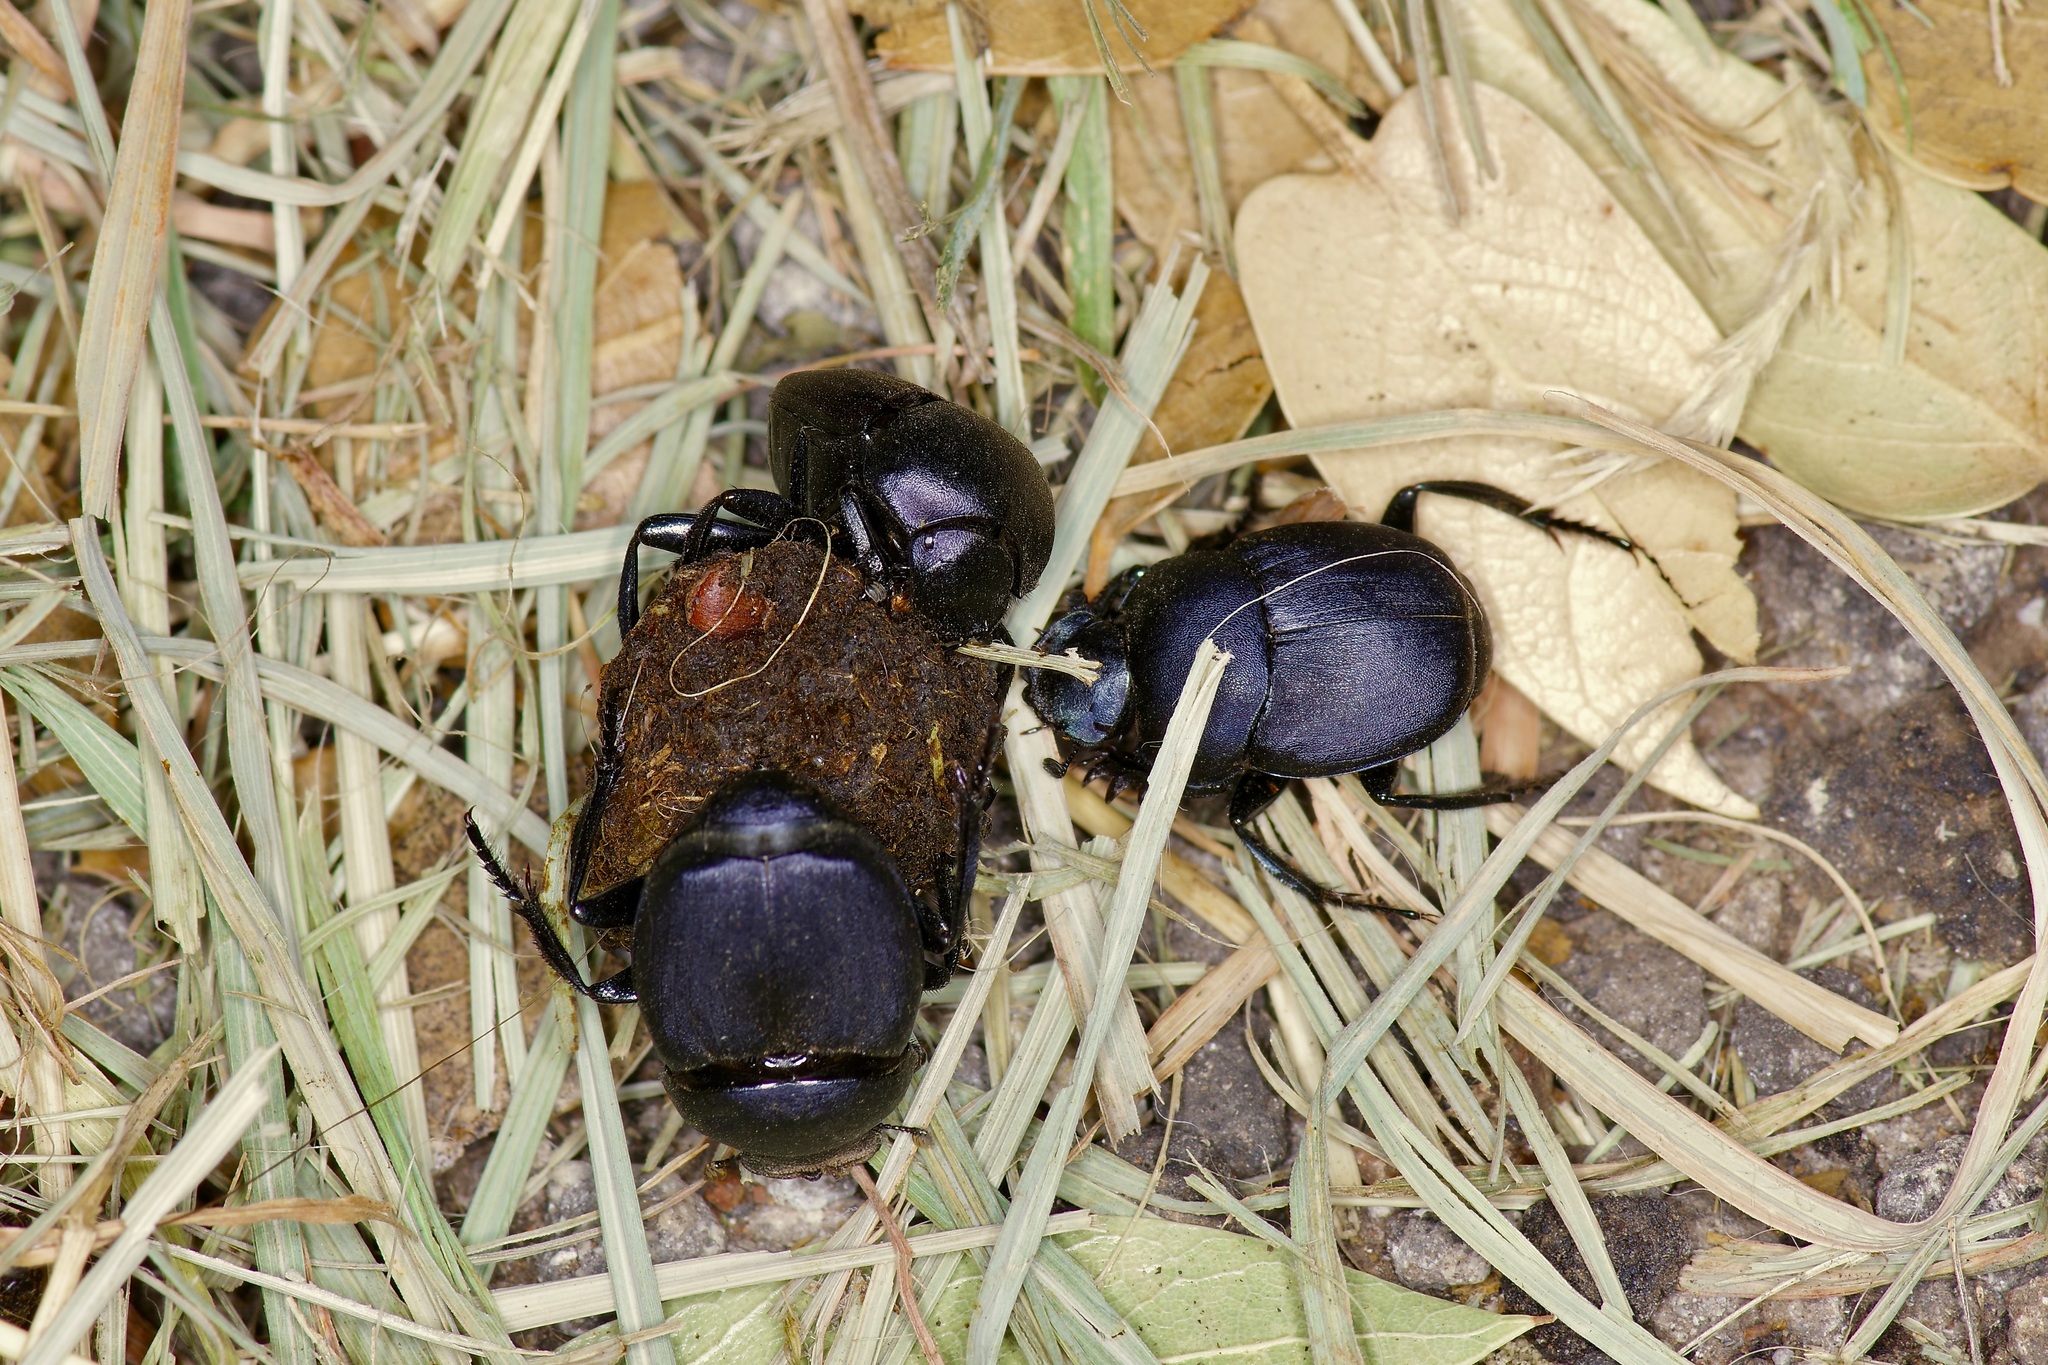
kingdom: Animalia
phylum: Arthropoda
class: Insecta
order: Coleoptera
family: Scarabaeidae
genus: Canthon
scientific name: Canthon imitator
